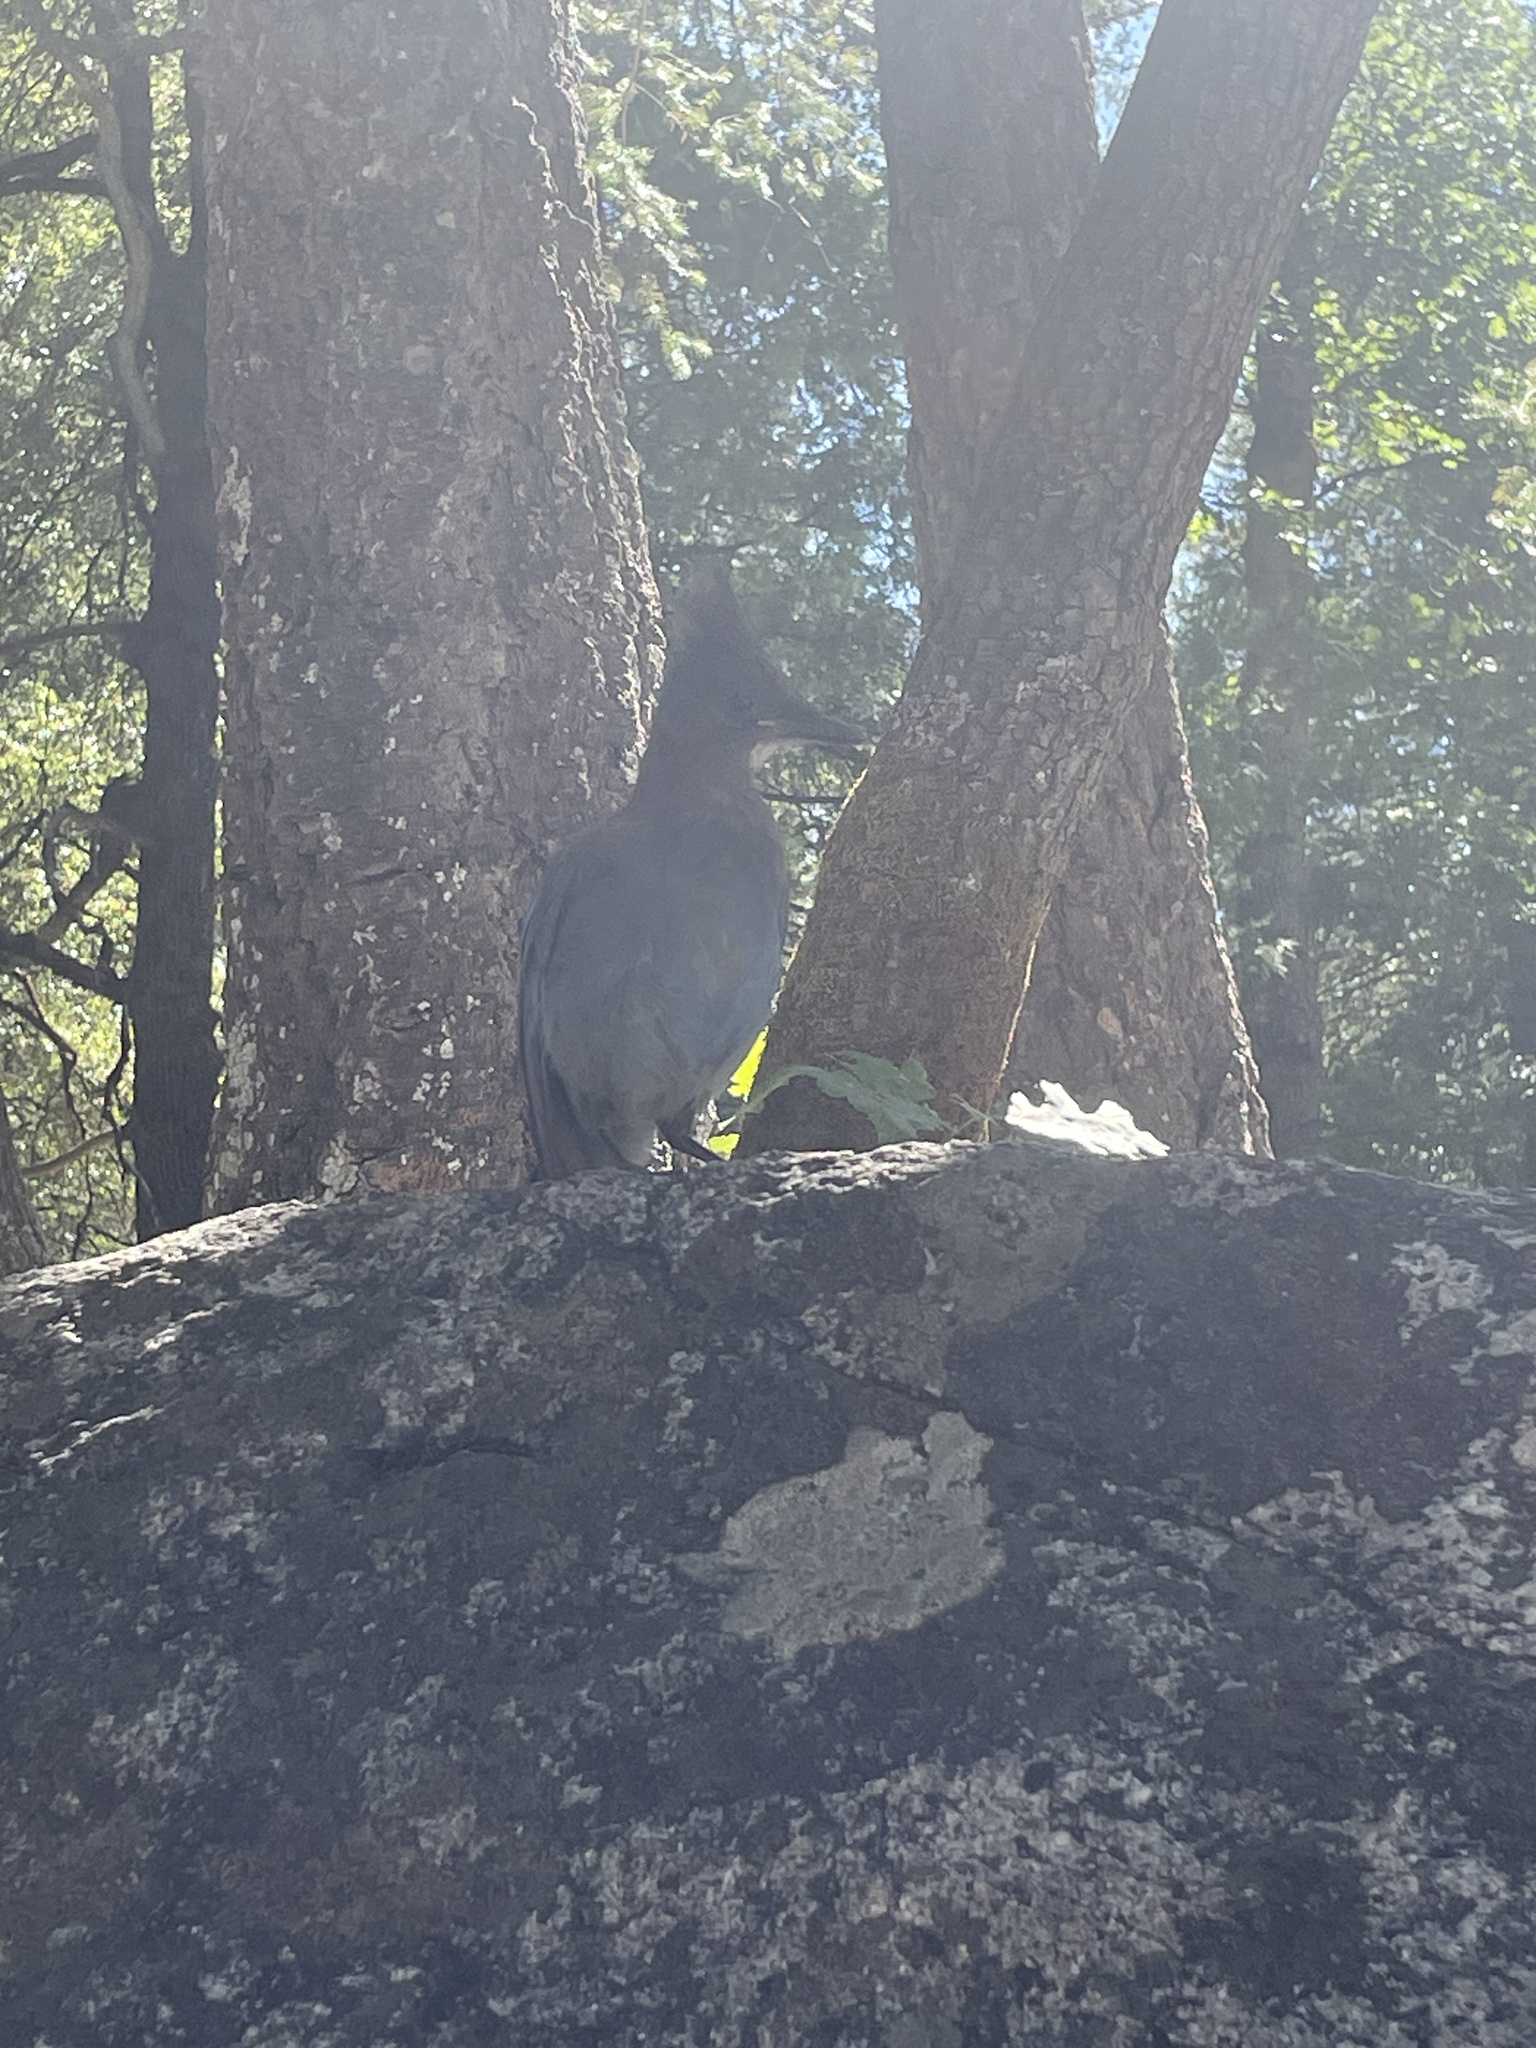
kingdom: Animalia
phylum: Chordata
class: Aves
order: Passeriformes
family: Corvidae
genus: Cyanocitta
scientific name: Cyanocitta stelleri
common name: Steller's jay
